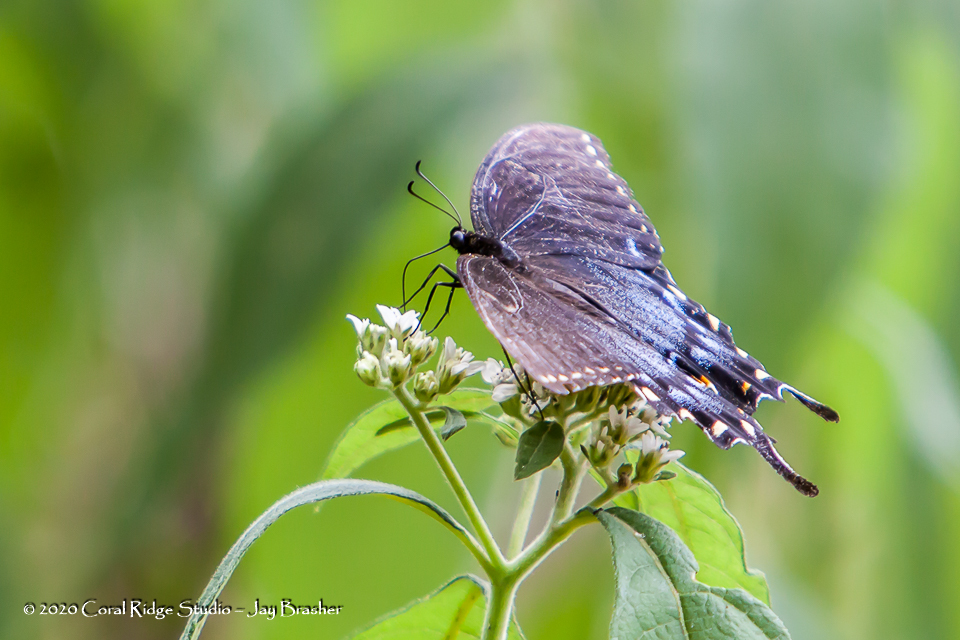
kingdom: Animalia
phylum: Arthropoda
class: Insecta
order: Lepidoptera
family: Papilionidae
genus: Papilio
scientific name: Papilio glaucus
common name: Tiger swallowtail
